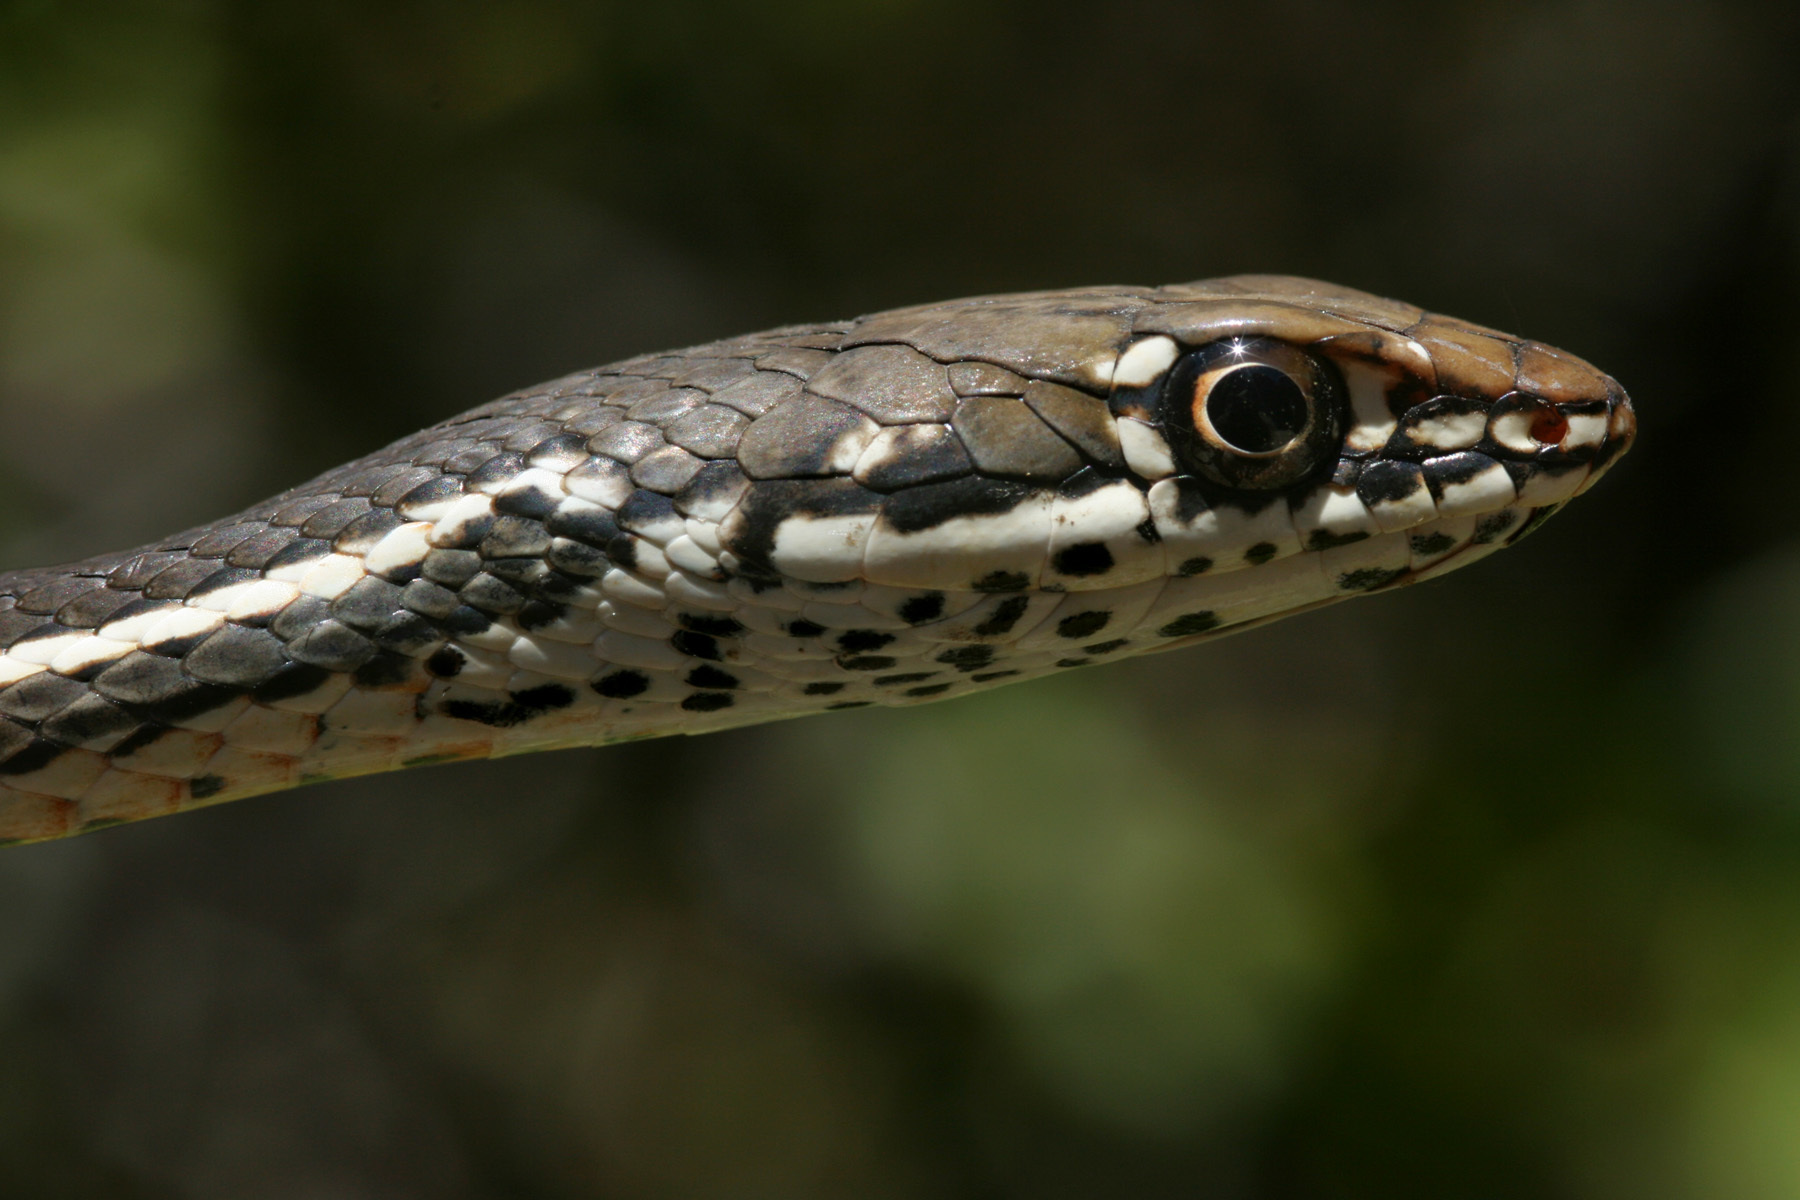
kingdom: Animalia
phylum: Chordata
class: Squamata
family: Colubridae
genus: Masticophis
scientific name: Masticophis lateralis
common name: Striped racer
